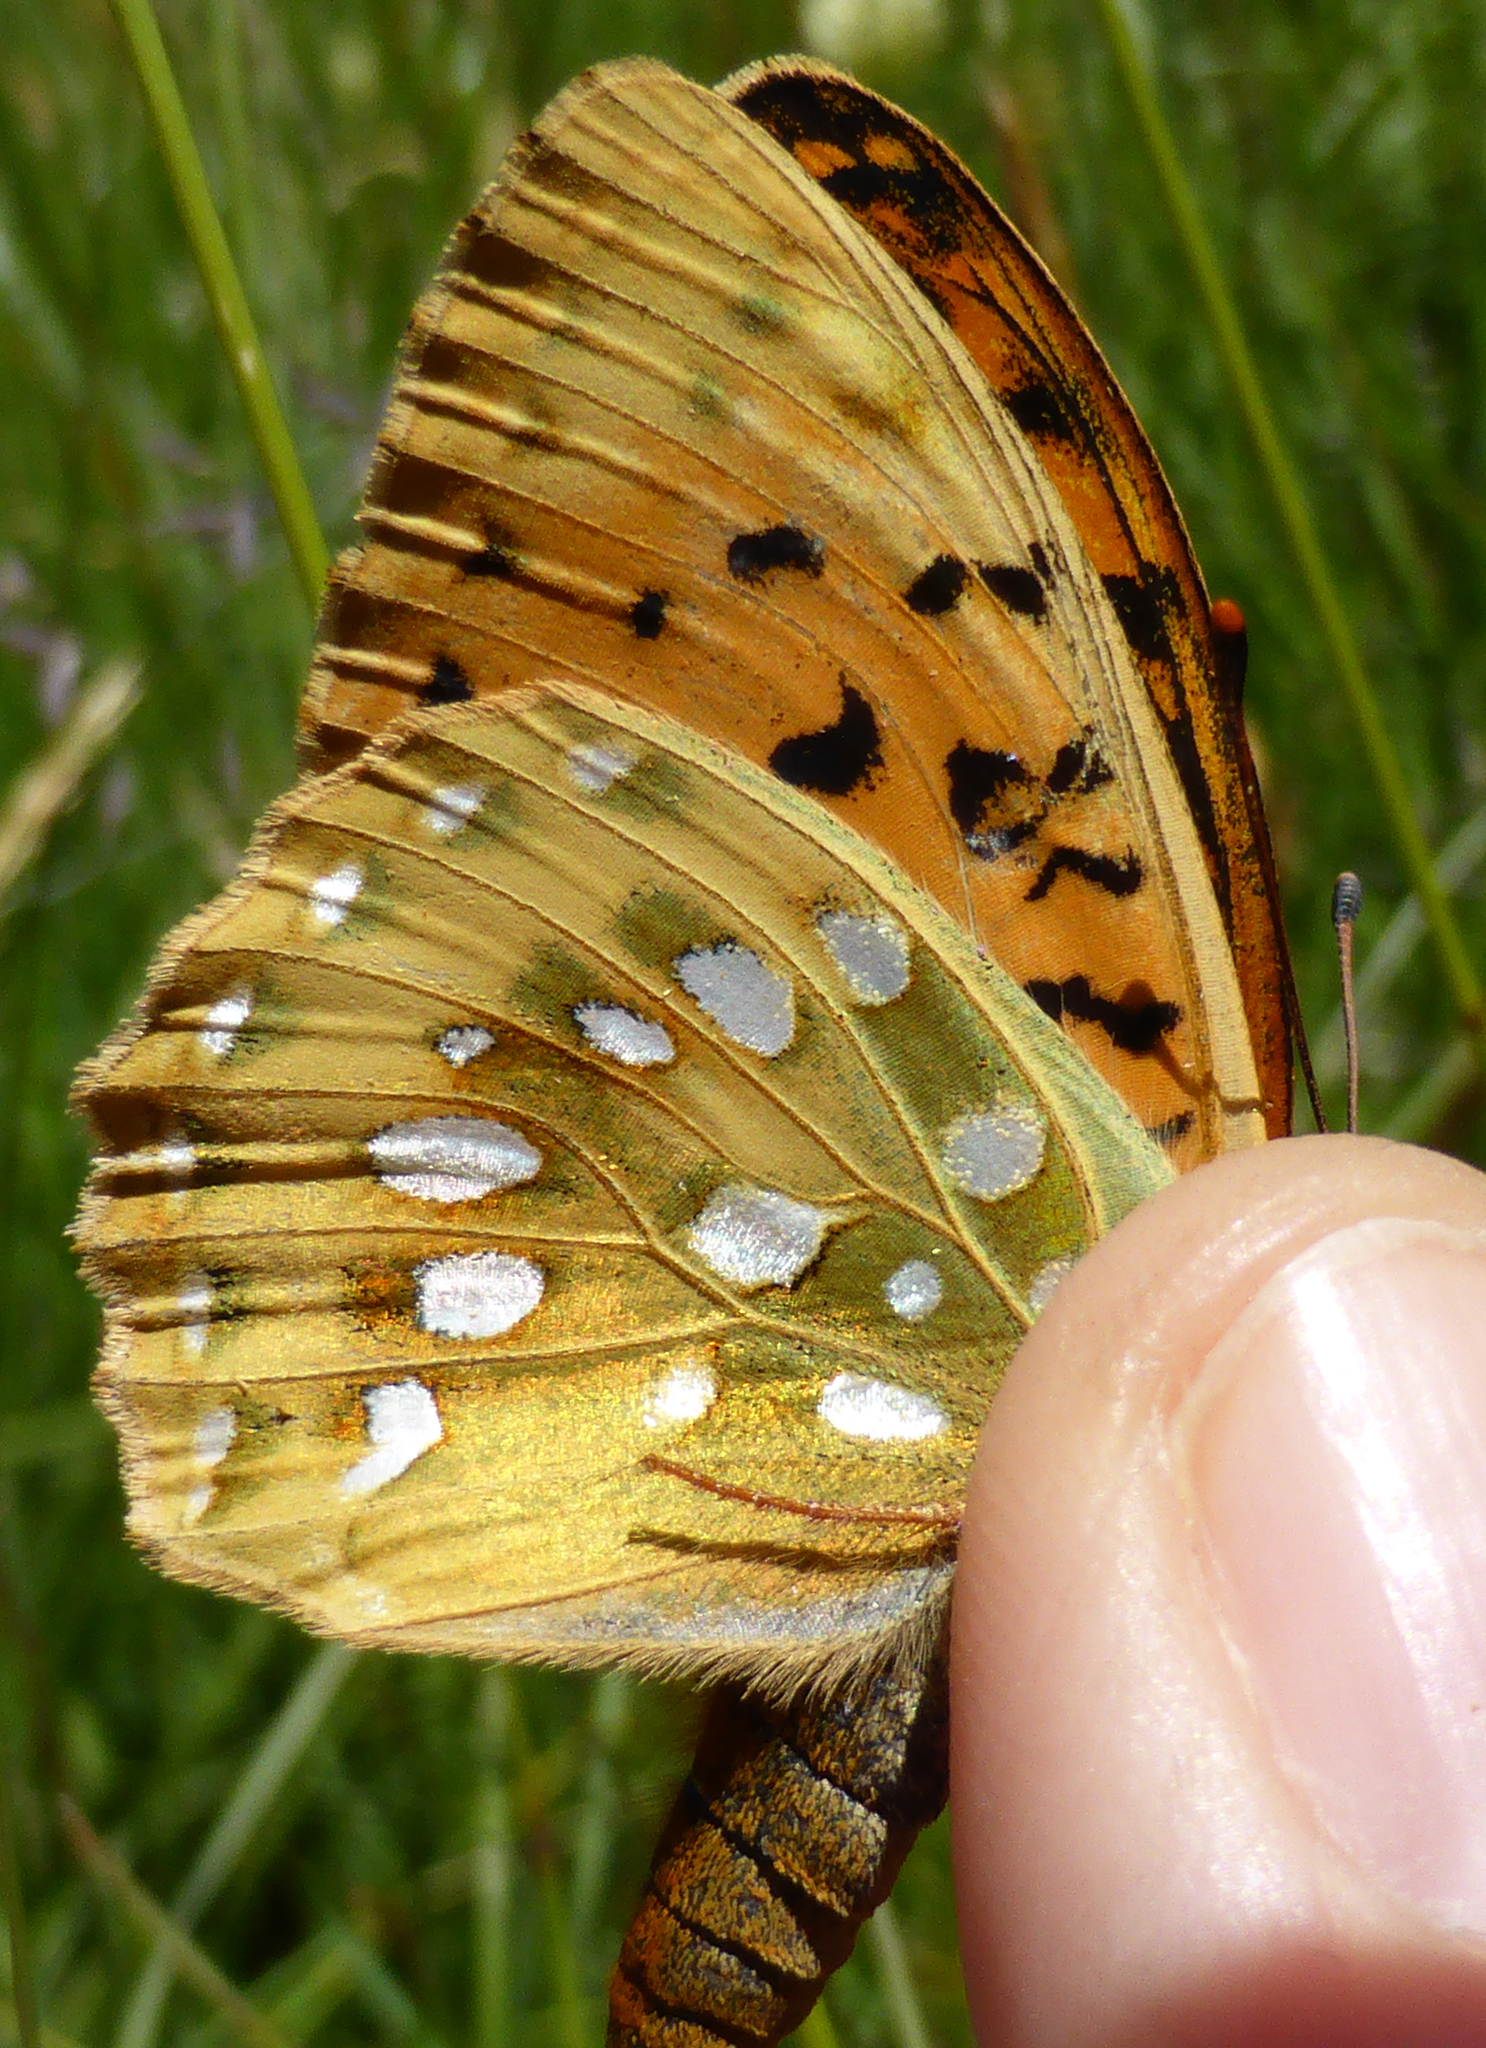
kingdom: Animalia
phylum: Arthropoda
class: Insecta
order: Lepidoptera
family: Nymphalidae
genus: Speyeria
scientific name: Speyeria aglaja
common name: Dark green fritillary
